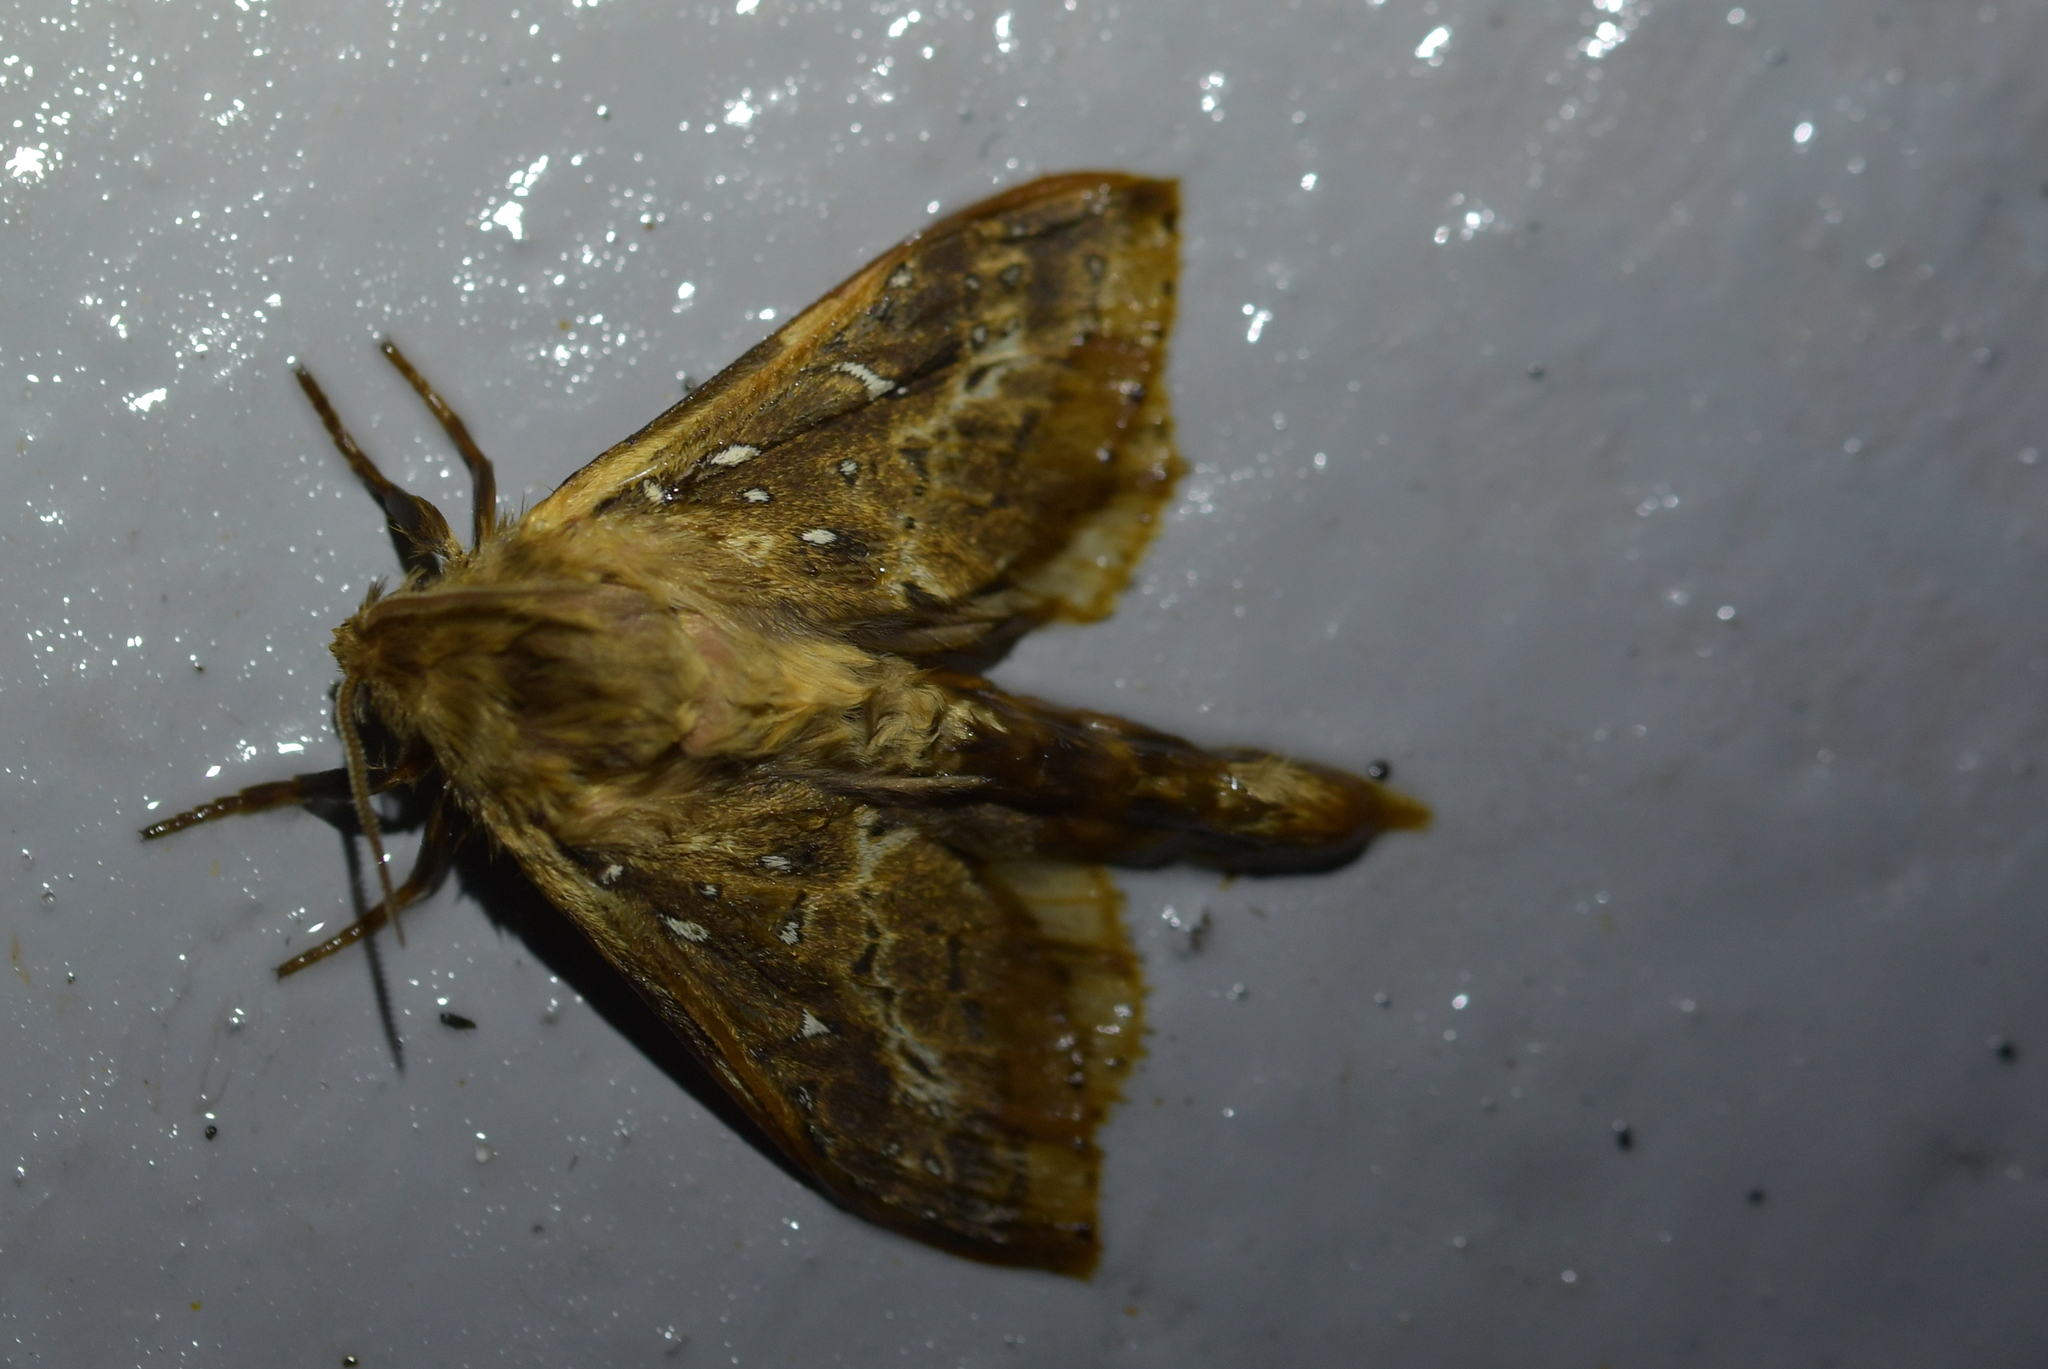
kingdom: Animalia
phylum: Arthropoda
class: Insecta
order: Lepidoptera
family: Hepialidae
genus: Wiseana
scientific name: Wiseana cervinata
